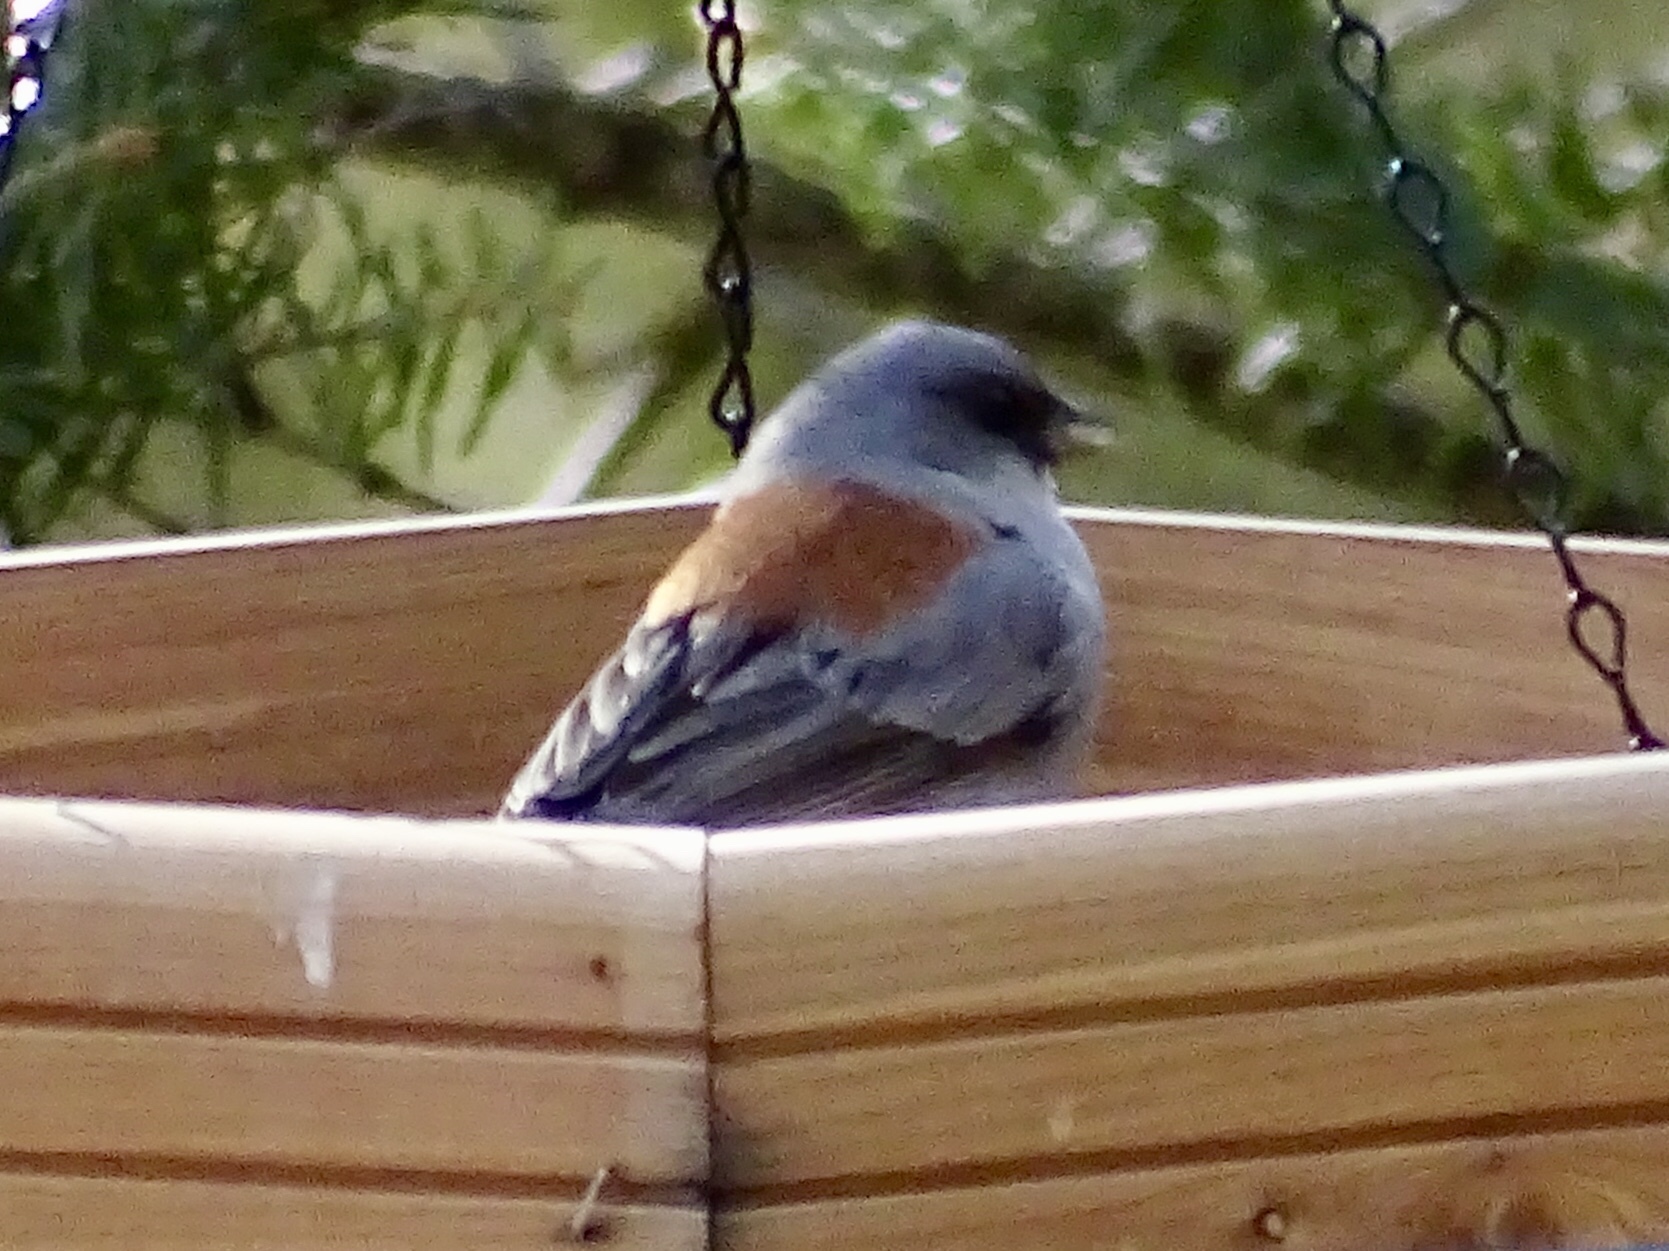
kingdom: Animalia
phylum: Chordata
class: Aves
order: Passeriformes
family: Passerellidae
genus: Junco
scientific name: Junco hyemalis
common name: Dark-eyed junco
